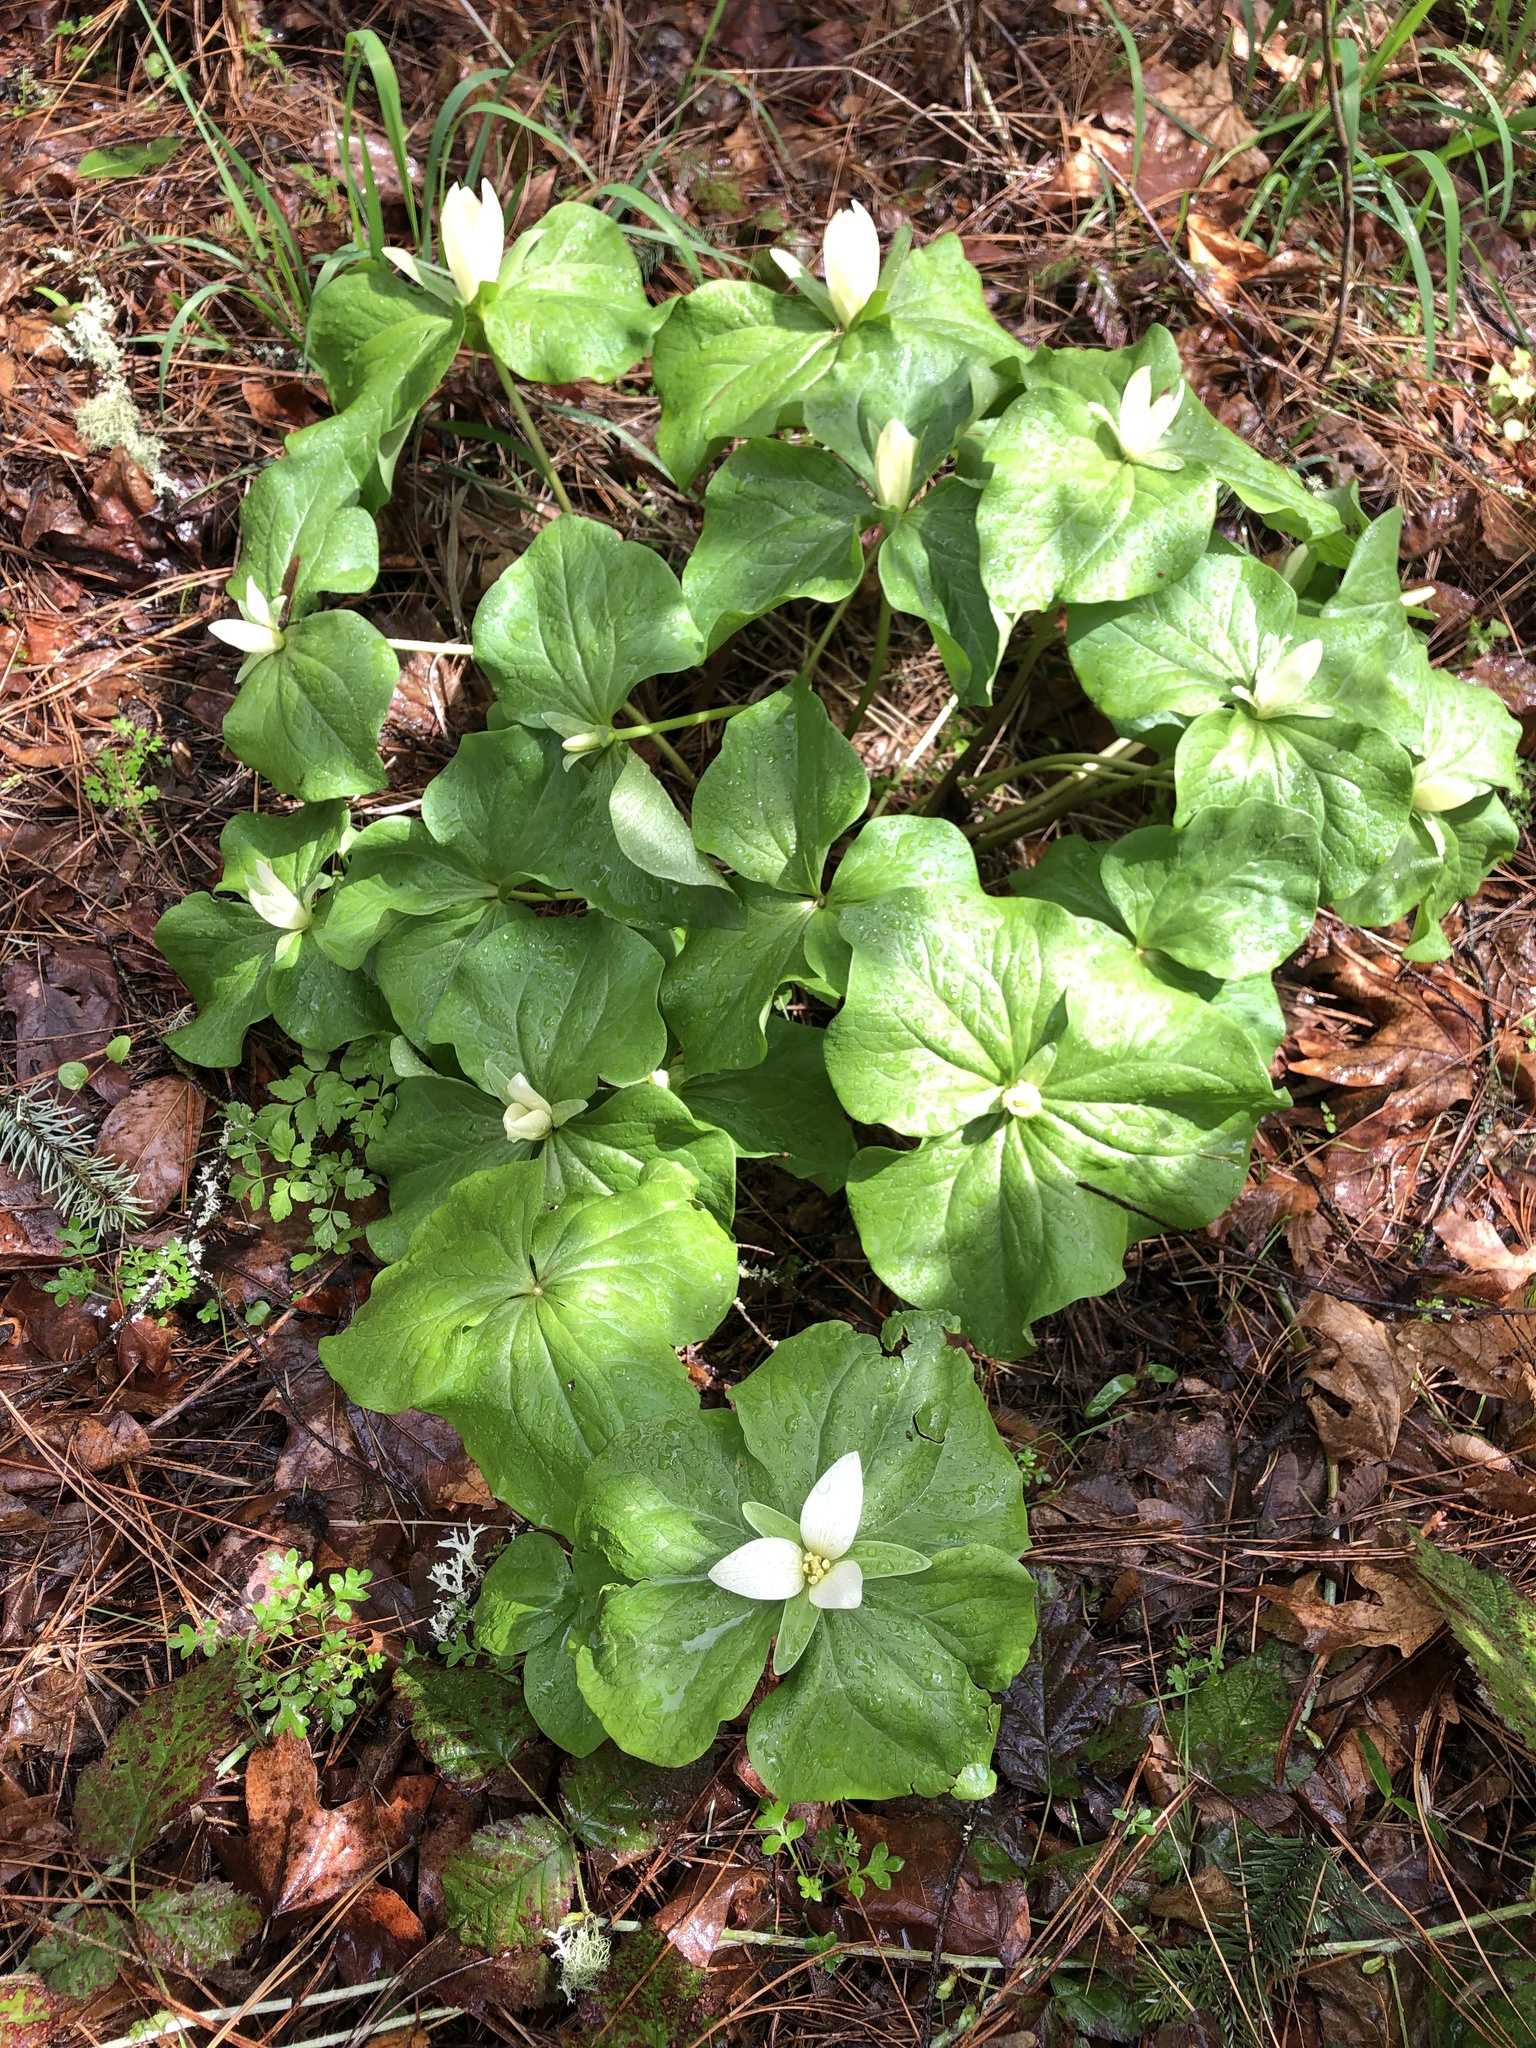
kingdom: Plantae
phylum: Tracheophyta
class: Liliopsida
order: Liliales
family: Melanthiaceae
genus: Trillium
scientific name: Trillium albidum
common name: Freeman's trillium
